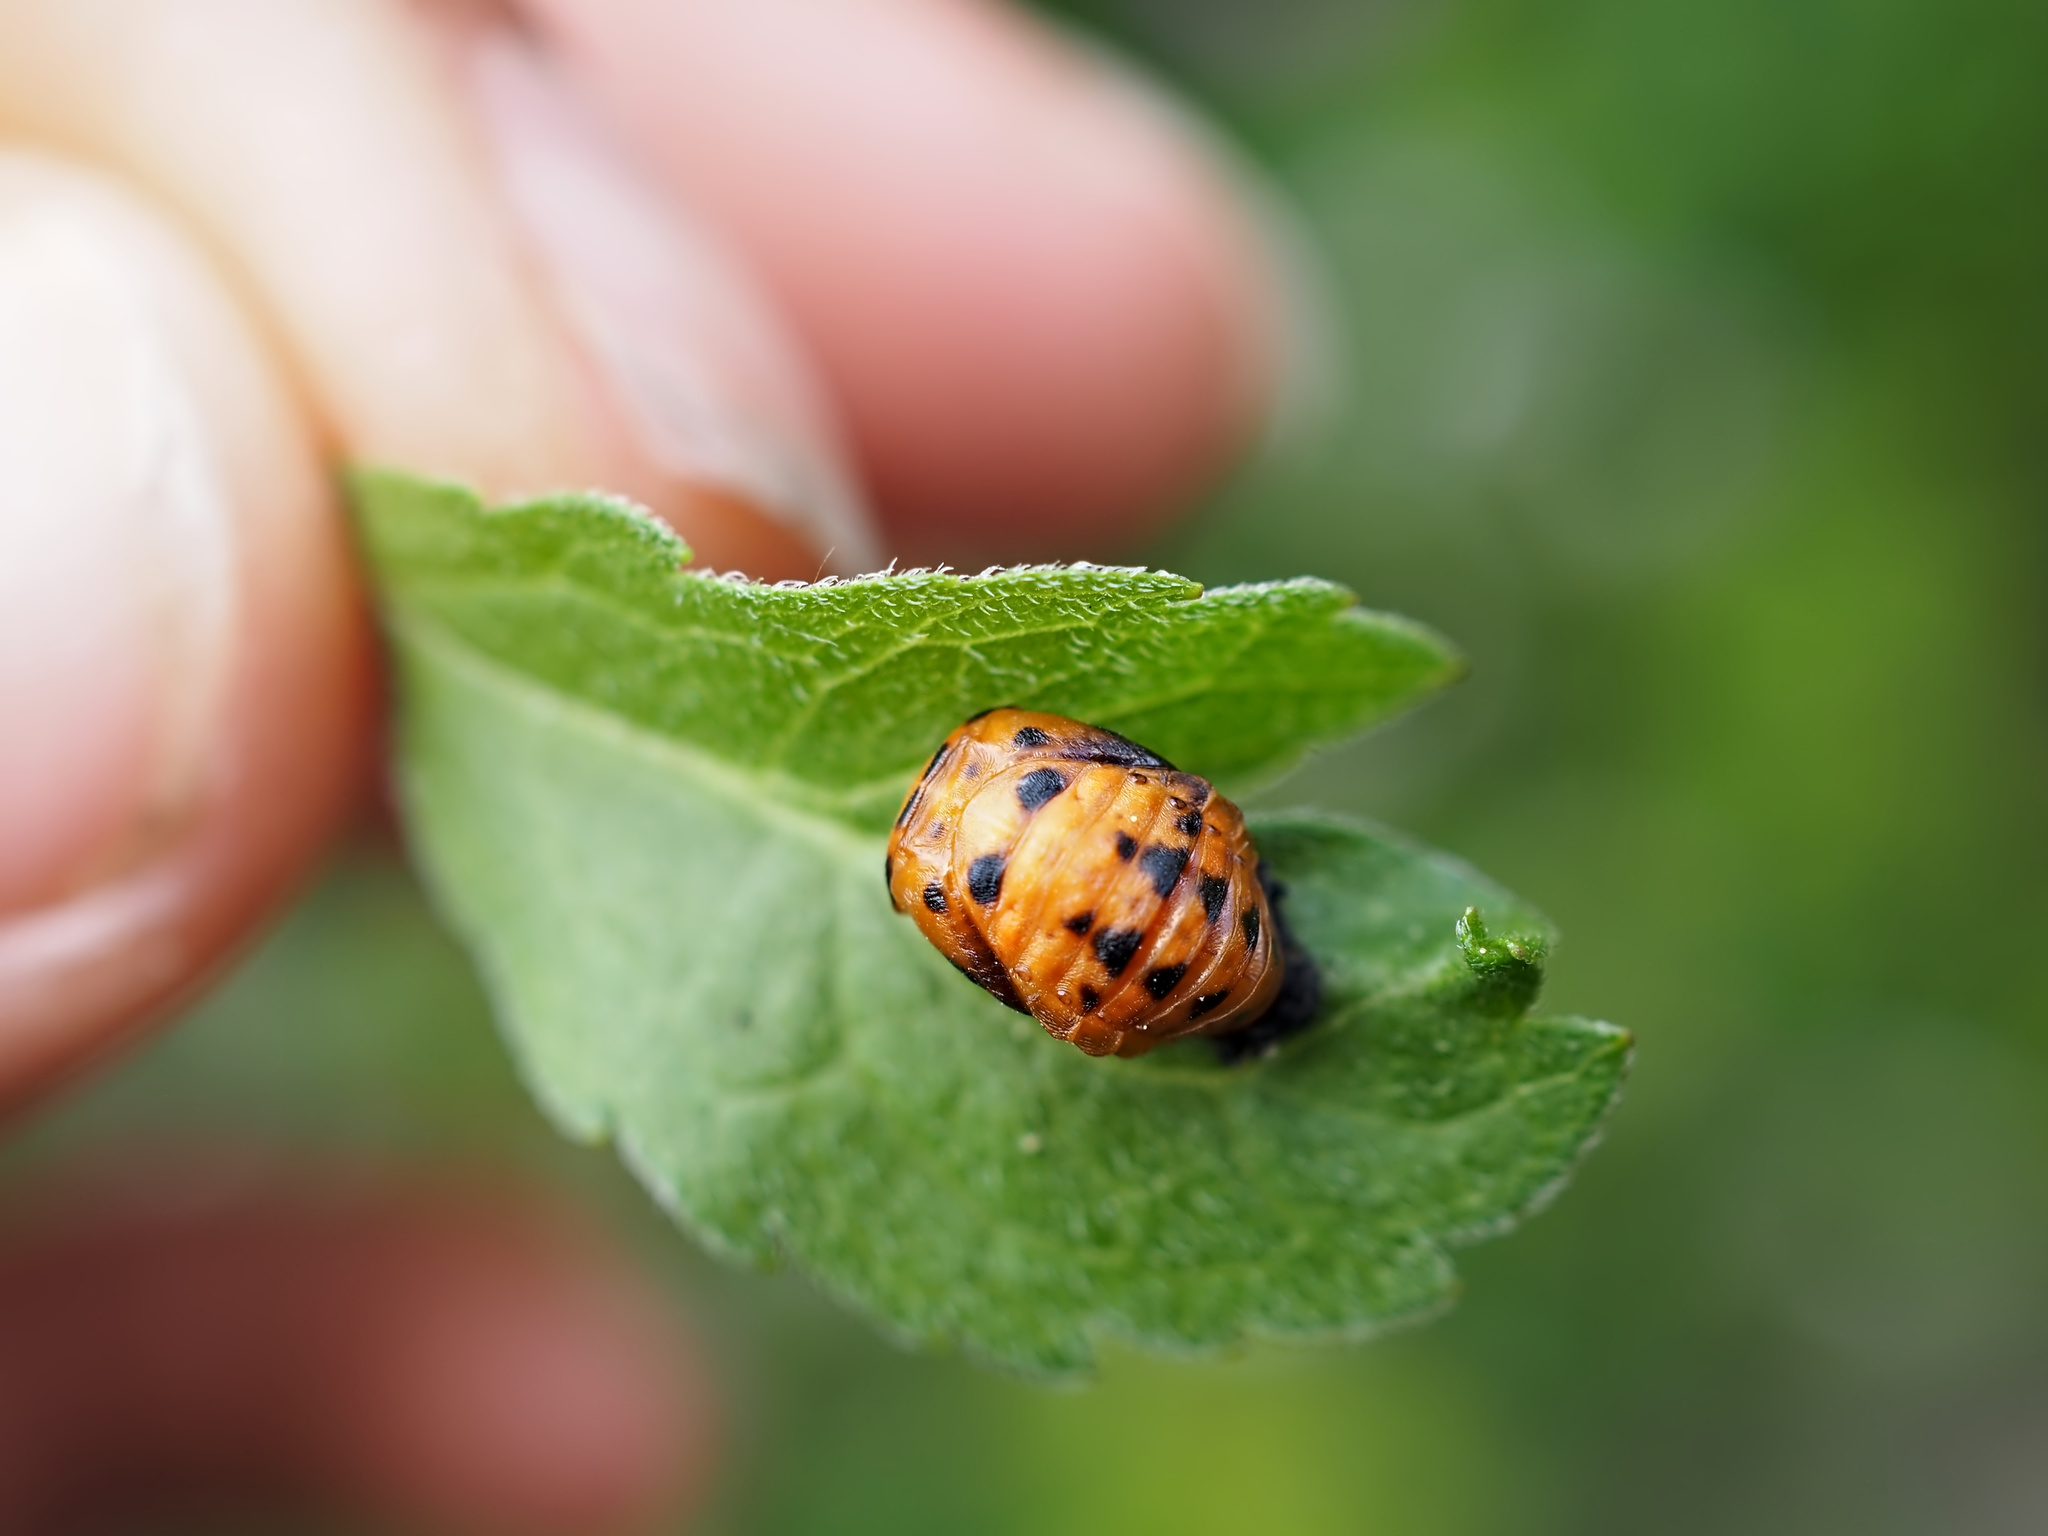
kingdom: Animalia
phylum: Arthropoda
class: Insecta
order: Coleoptera
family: Coccinellidae
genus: Coccinella
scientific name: Coccinella septempunctata
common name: Sevenspotted lady beetle
